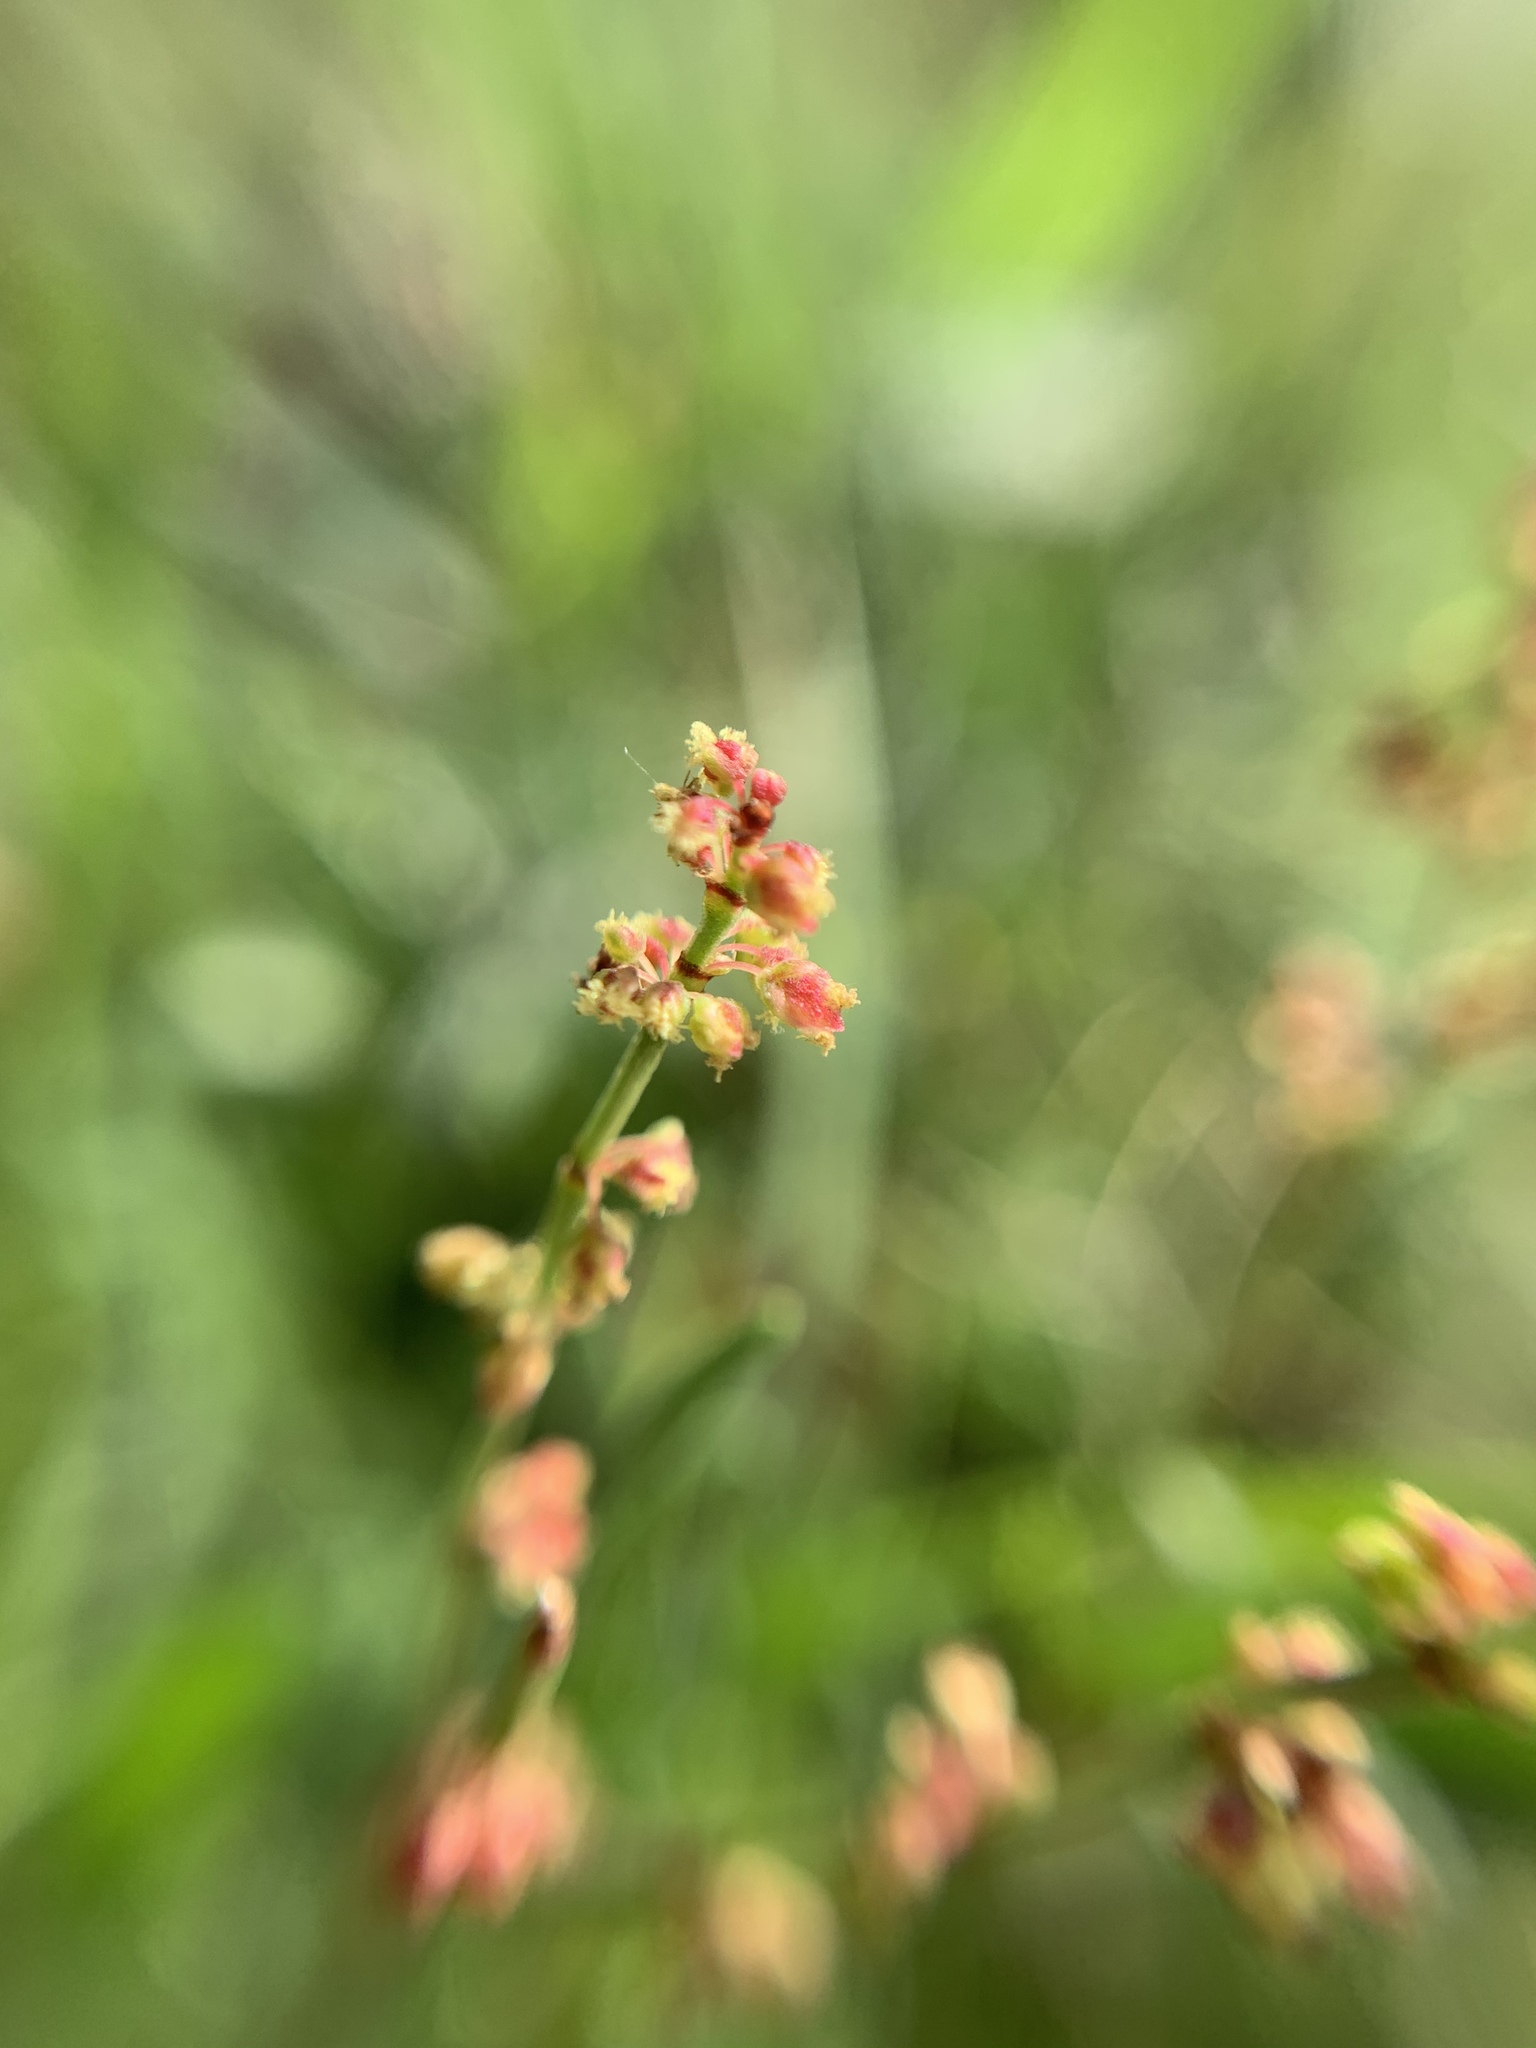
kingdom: Plantae
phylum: Tracheophyta
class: Magnoliopsida
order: Caryophyllales
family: Polygonaceae
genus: Rumex
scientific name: Rumex acetosella
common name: Common sheep sorrel
